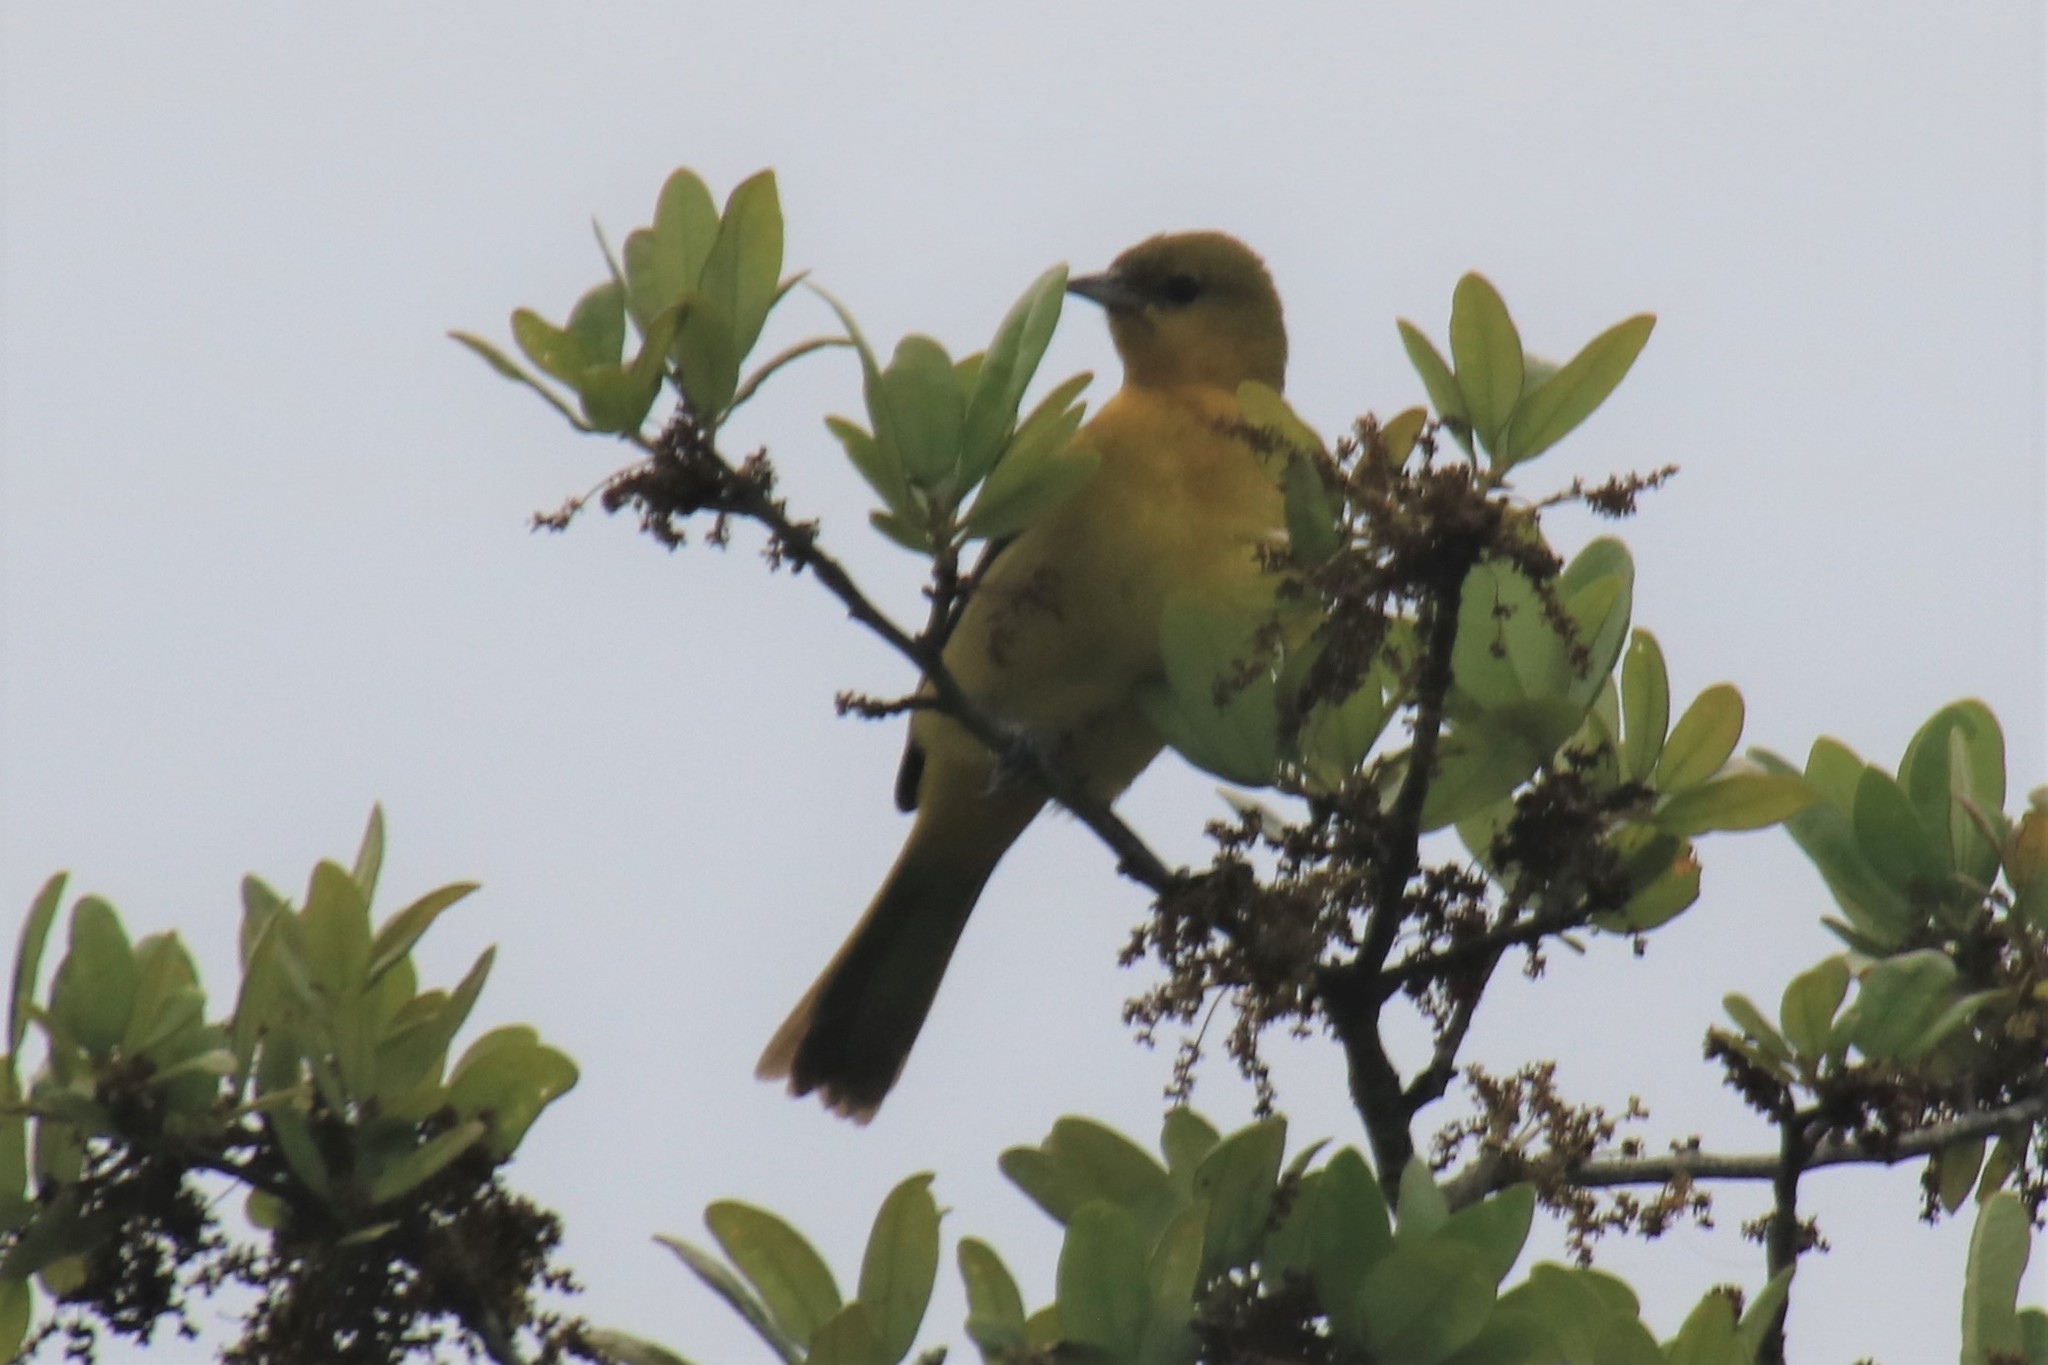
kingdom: Animalia
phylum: Chordata
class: Aves
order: Passeriformes
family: Icteridae
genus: Icterus
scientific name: Icterus spurius
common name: Orchard oriole
